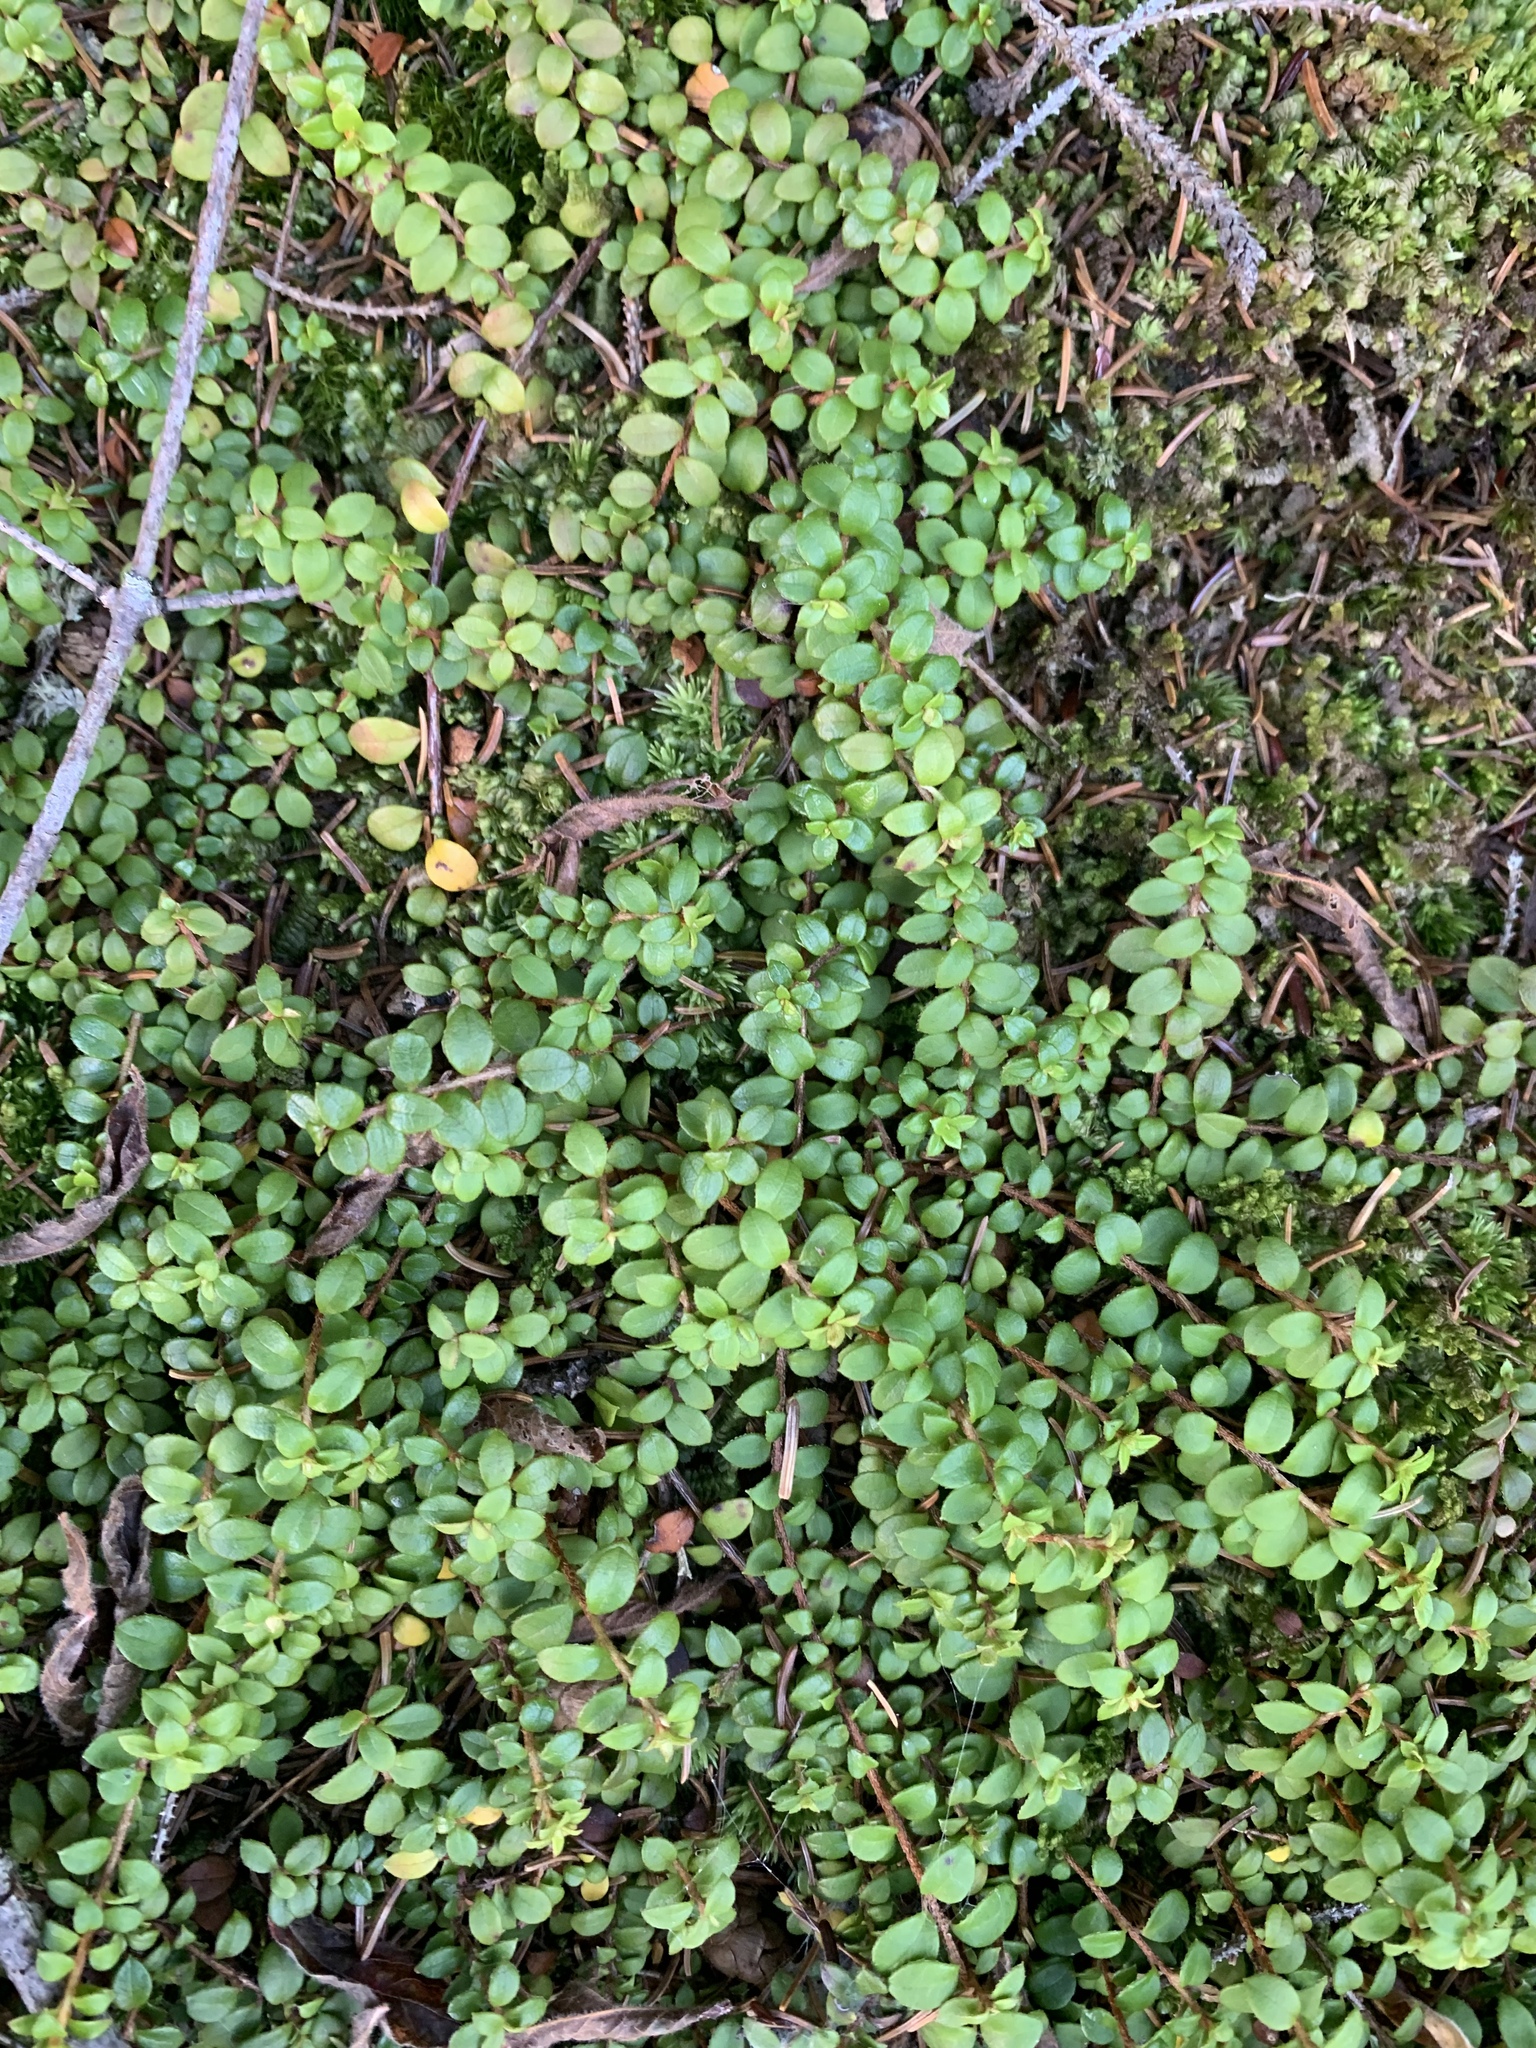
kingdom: Plantae
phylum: Tracheophyta
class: Magnoliopsida
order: Ericales
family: Ericaceae
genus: Gaultheria
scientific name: Gaultheria hispidula
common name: Cancer wintergreen
